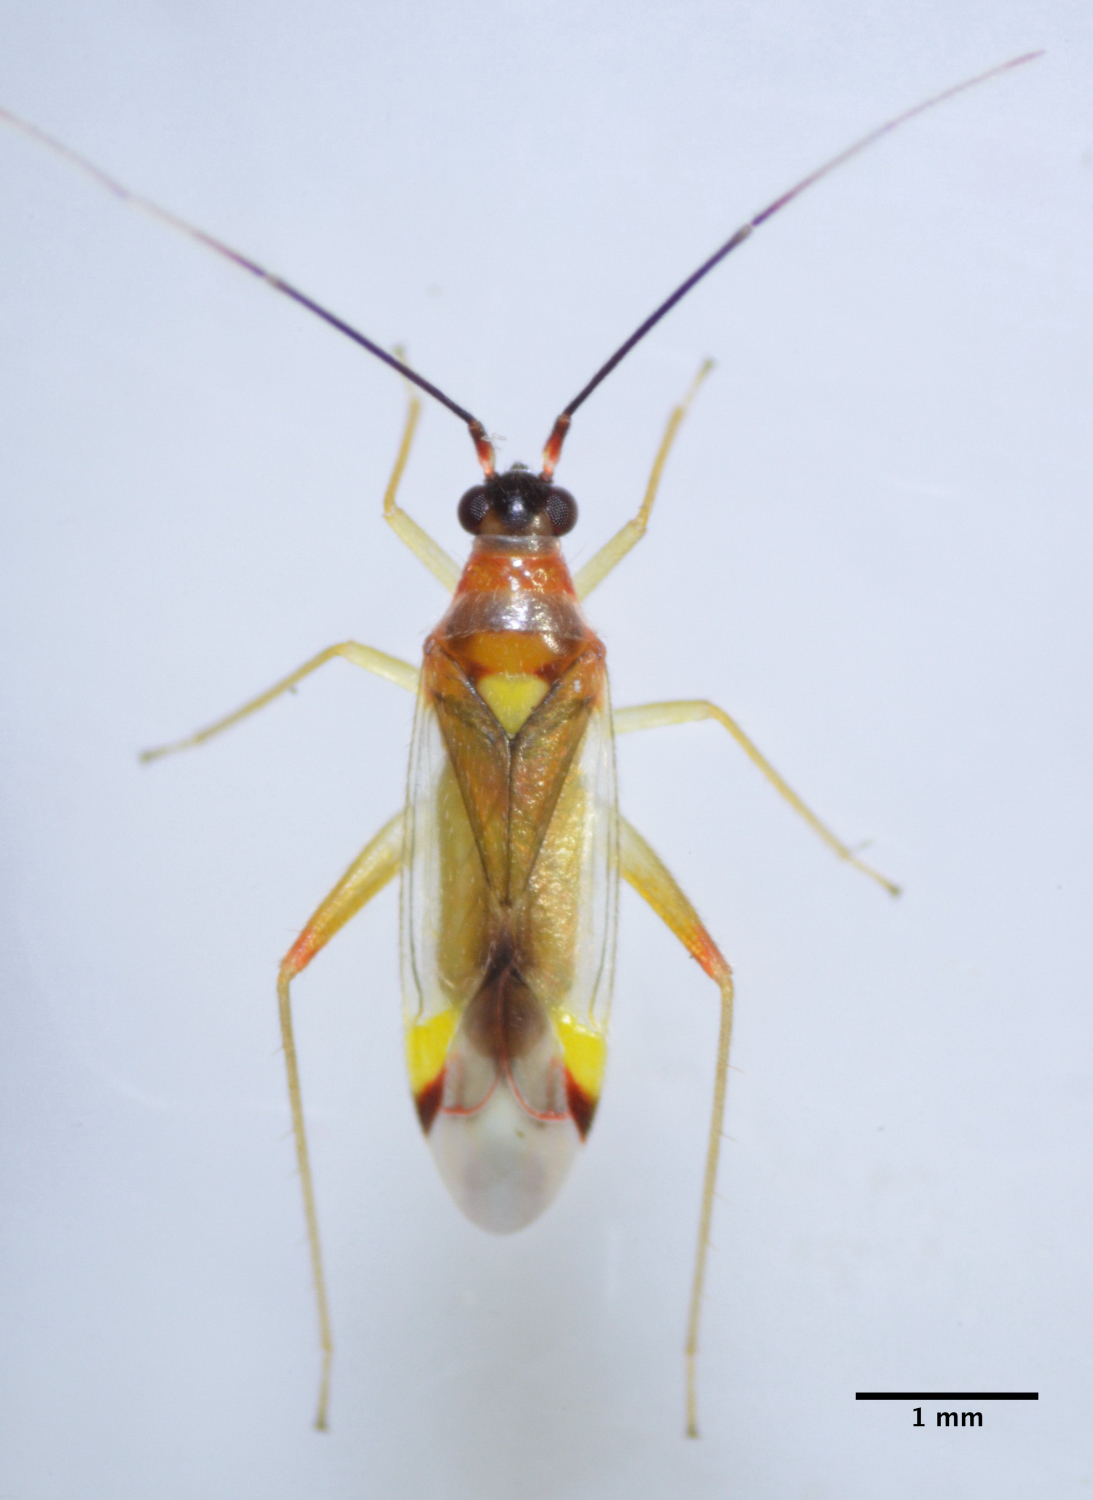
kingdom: Animalia
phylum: Arthropoda
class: Insecta
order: Hemiptera
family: Miridae
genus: Campyloneura
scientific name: Campyloneura virgula
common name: Predatory bug
